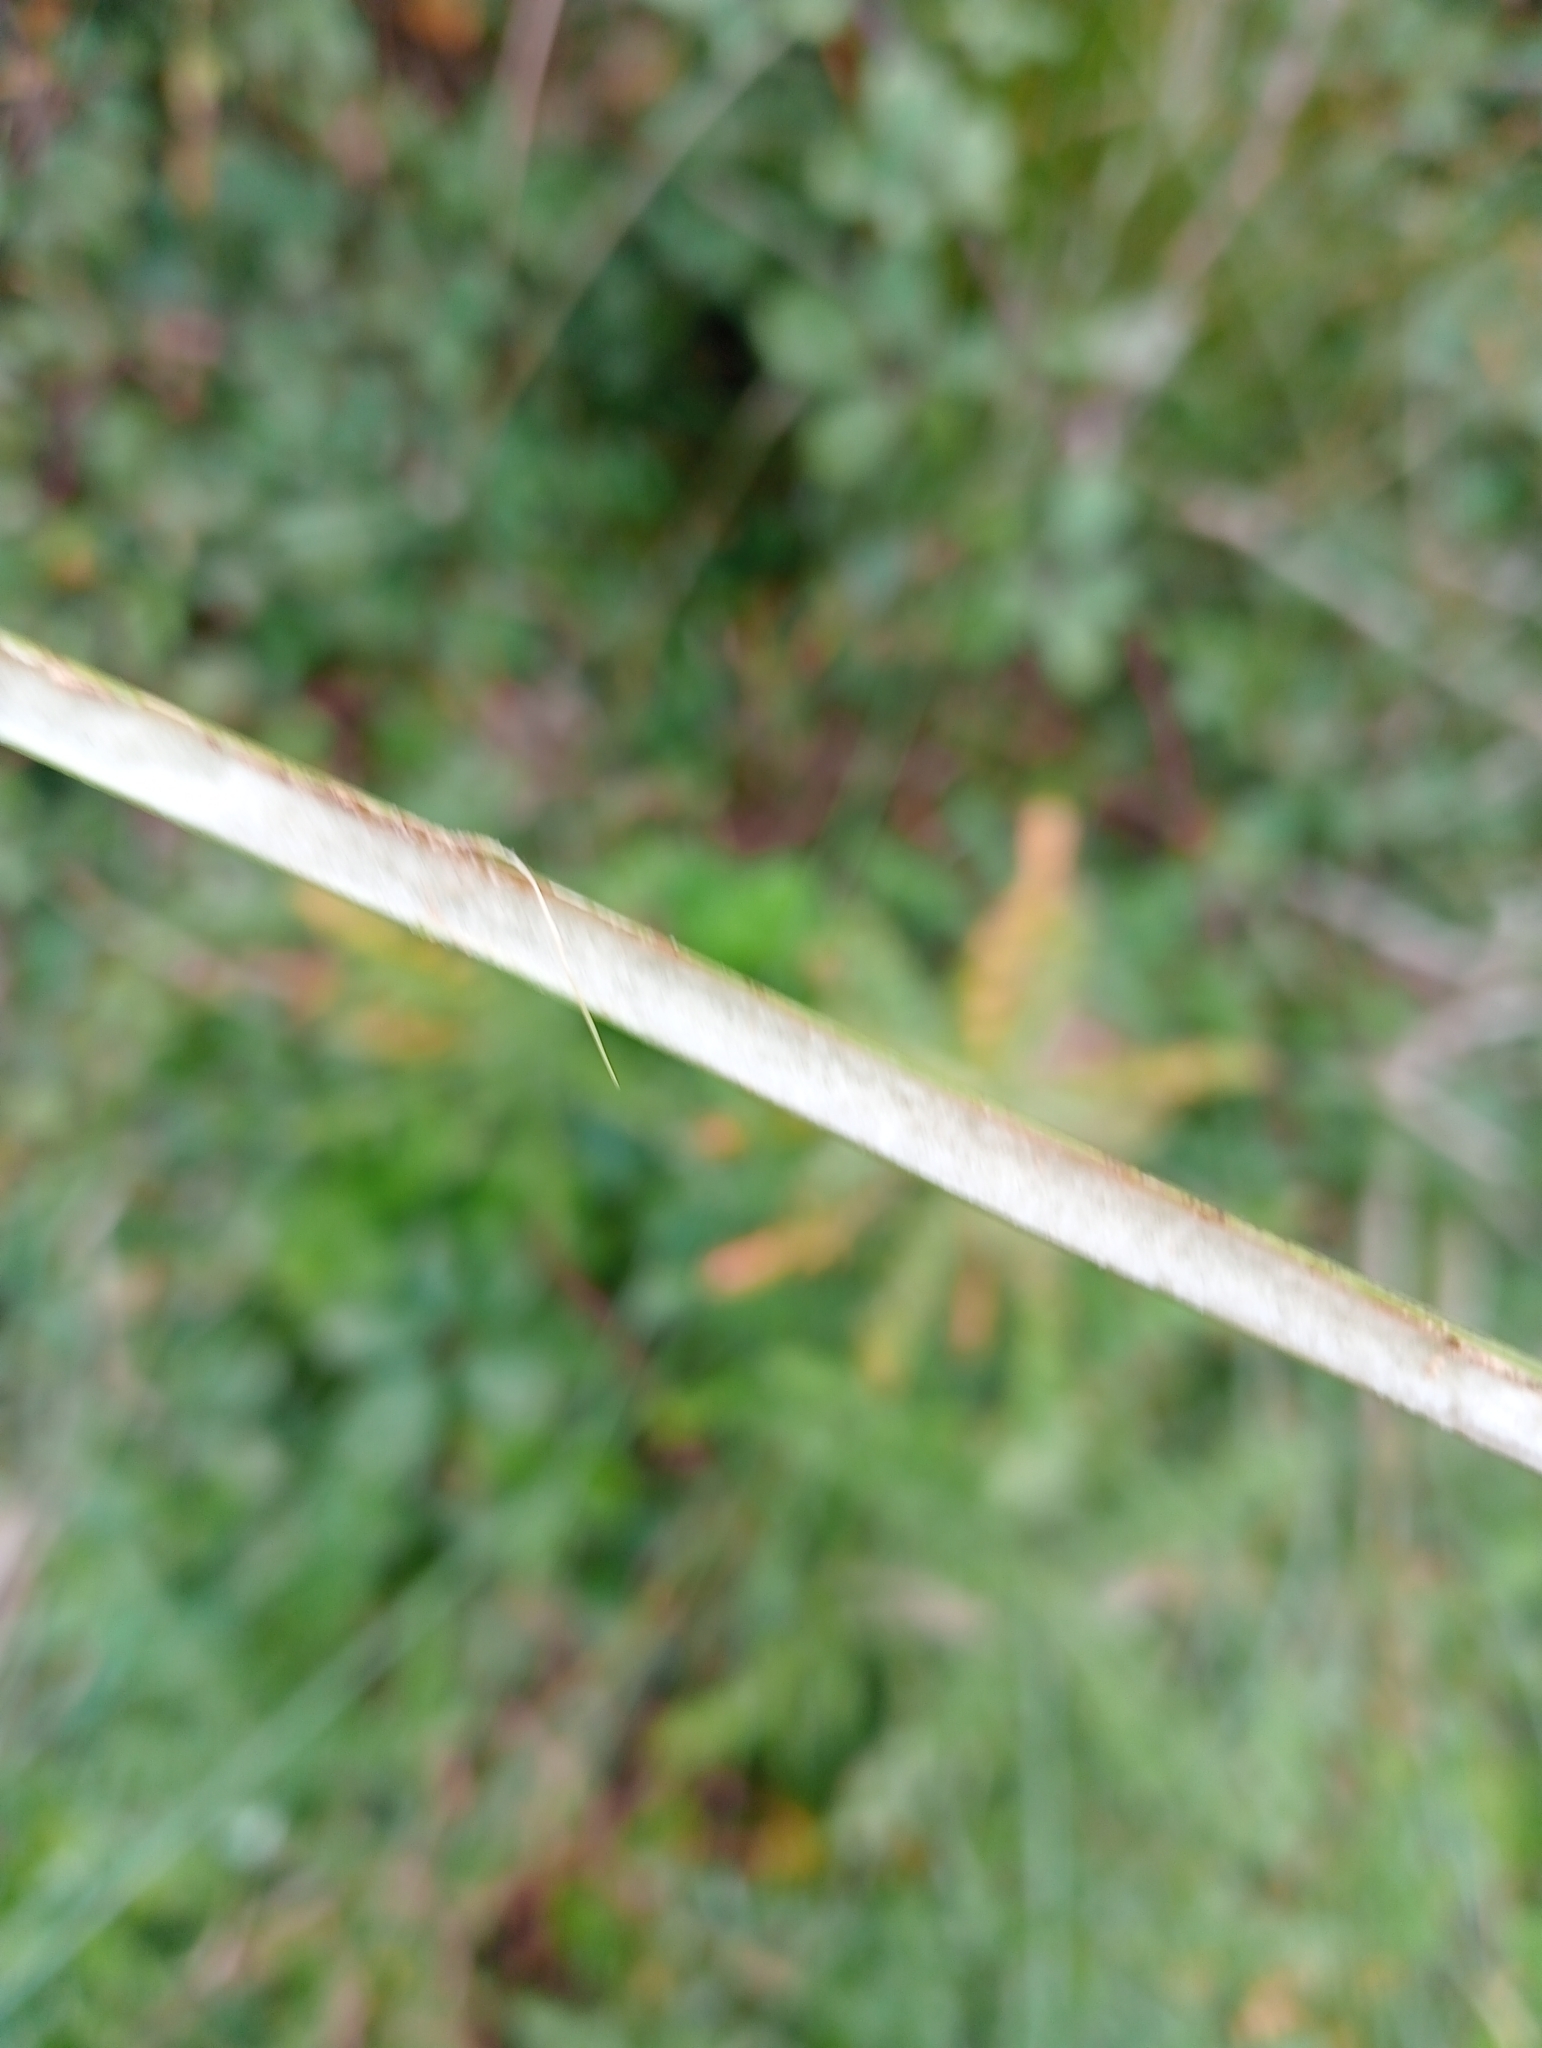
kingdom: Plantae
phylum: Tracheophyta
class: Liliopsida
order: Poales
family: Juncaceae
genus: Juncus
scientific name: Juncus pallidus
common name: Great soft-rush
